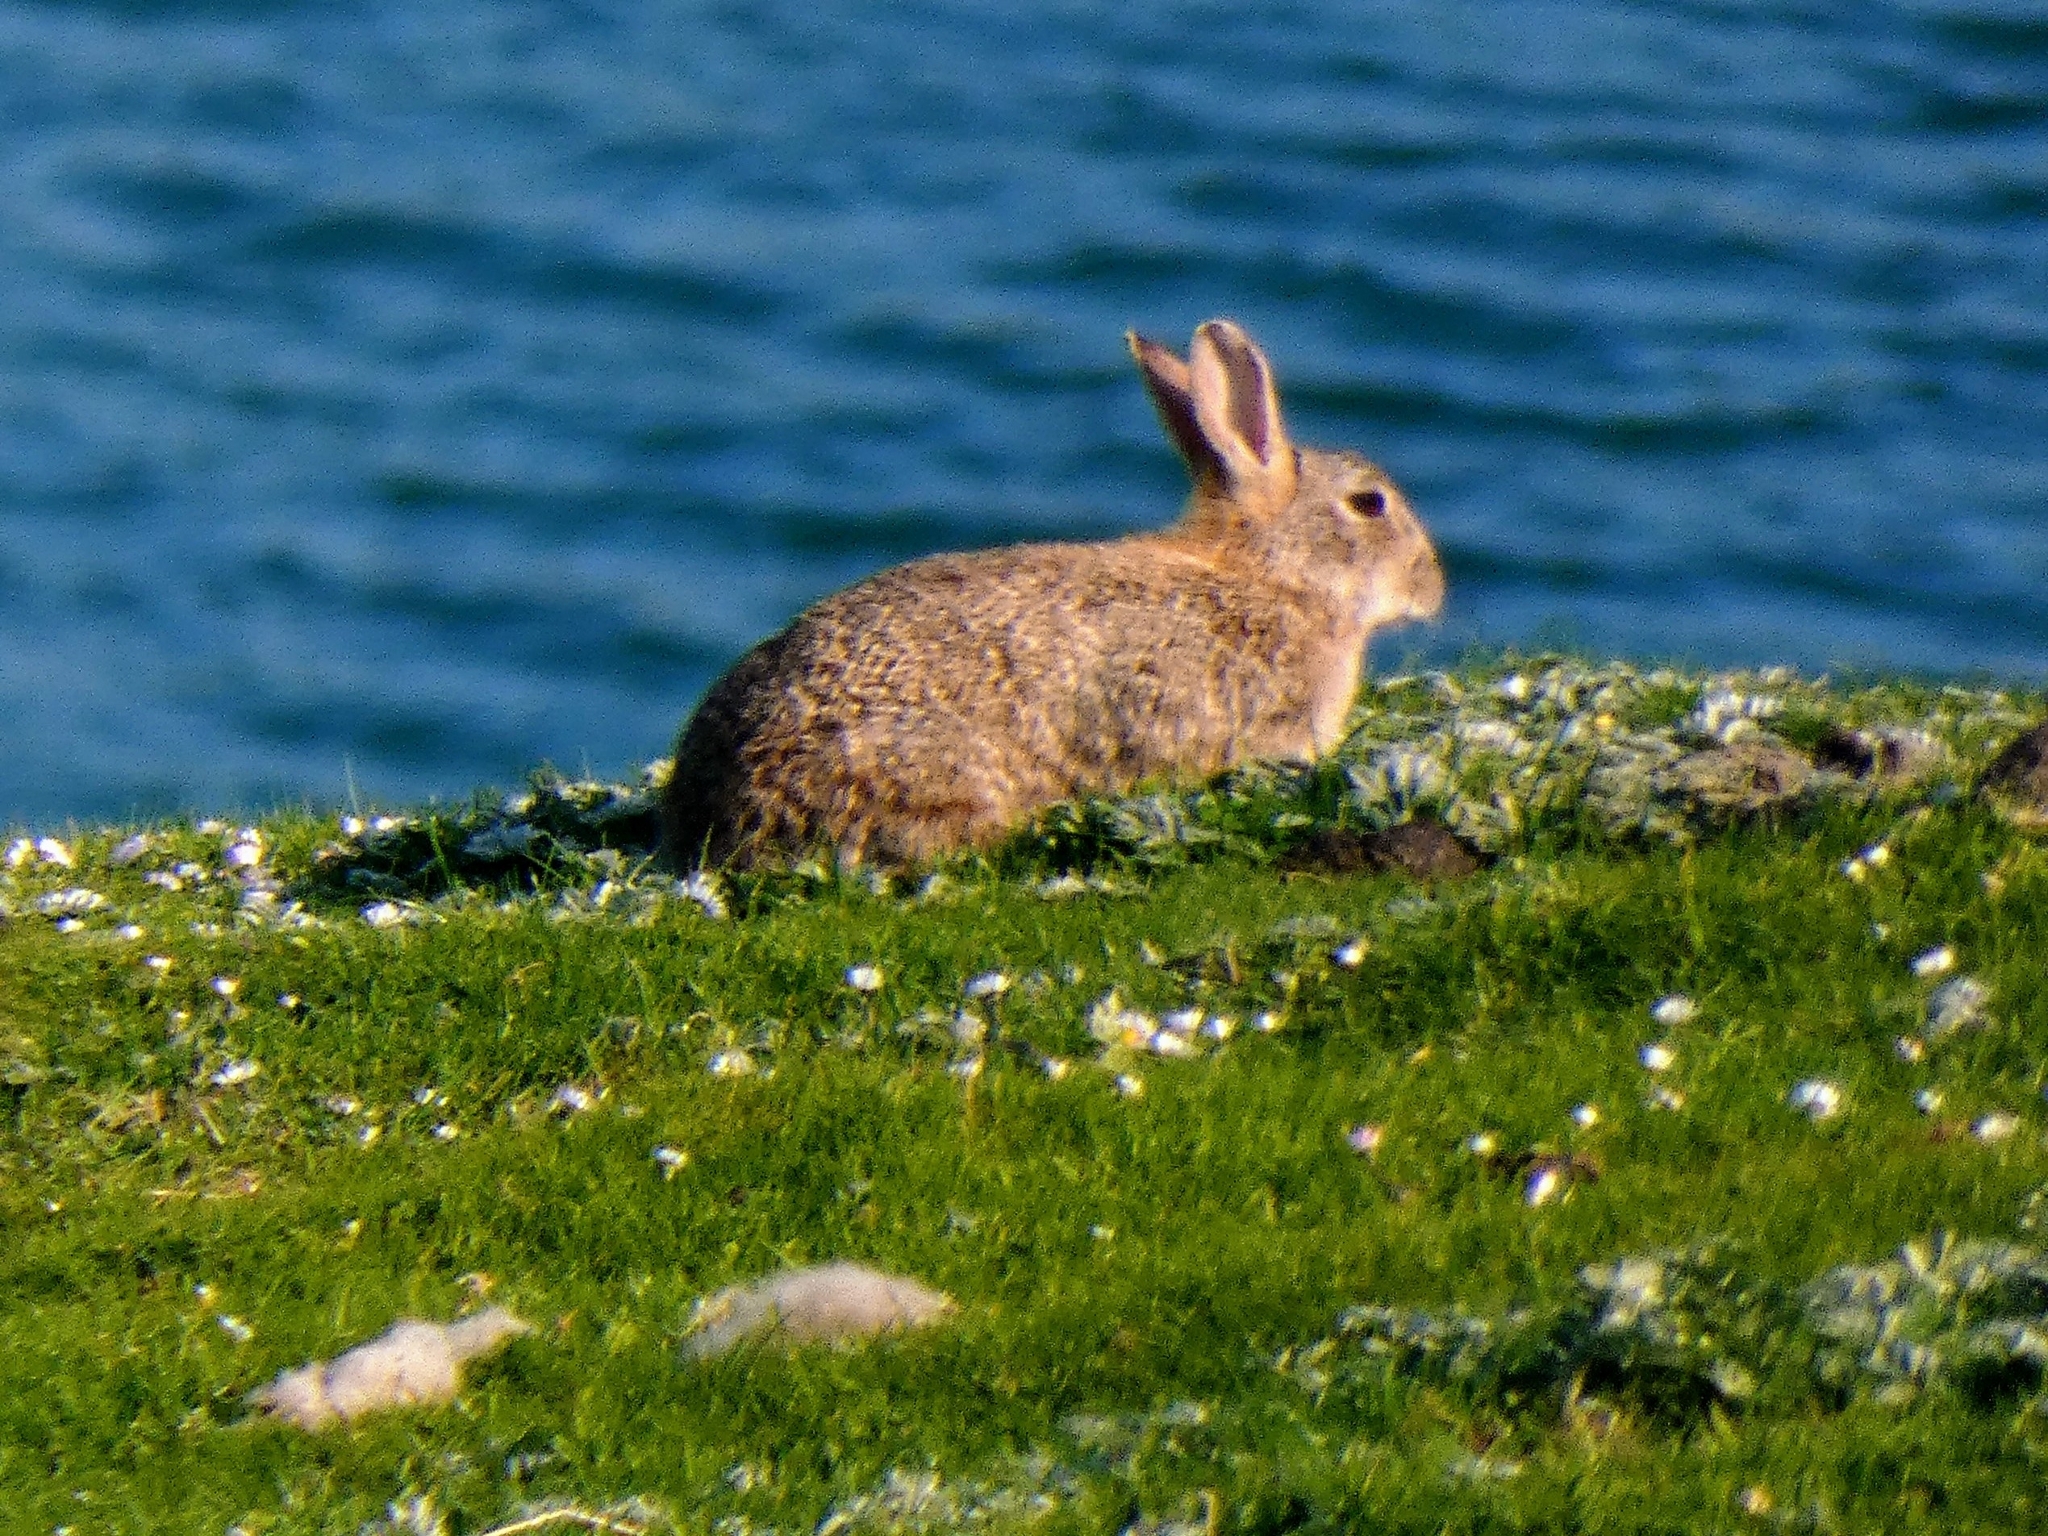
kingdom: Animalia
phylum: Chordata
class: Mammalia
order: Lagomorpha
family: Leporidae
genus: Oryctolagus
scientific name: Oryctolagus cuniculus
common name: European rabbit
